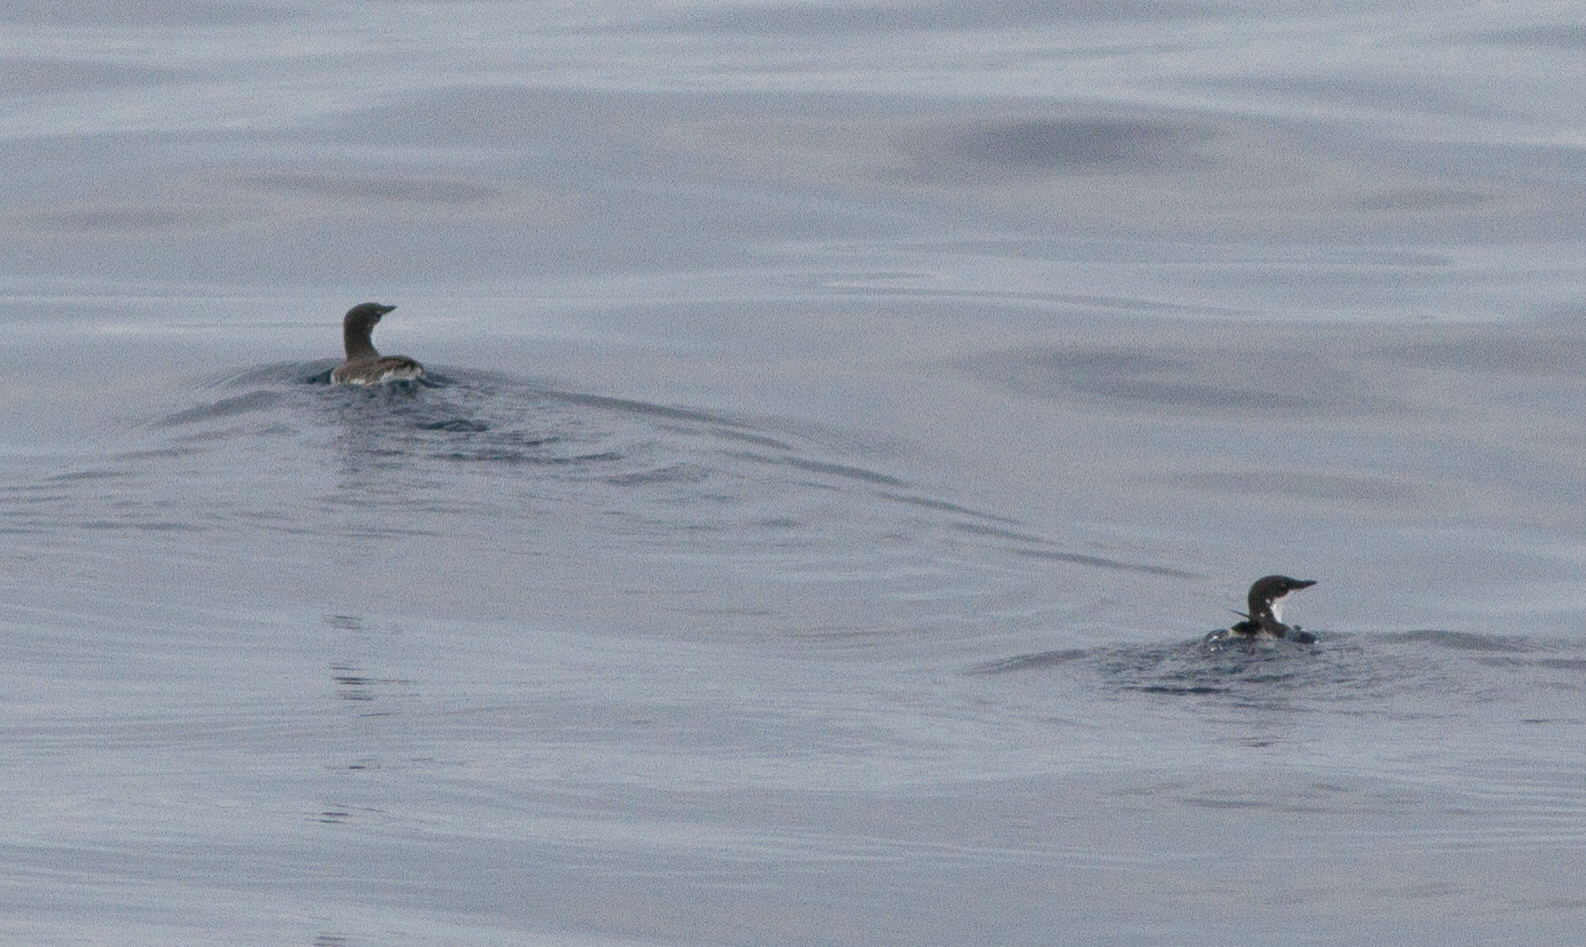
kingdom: Animalia
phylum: Chordata
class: Aves
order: Charadriiformes
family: Alcidae
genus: Synthliboramphus
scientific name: Synthliboramphus scrippsi
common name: Scripps's murrelet
